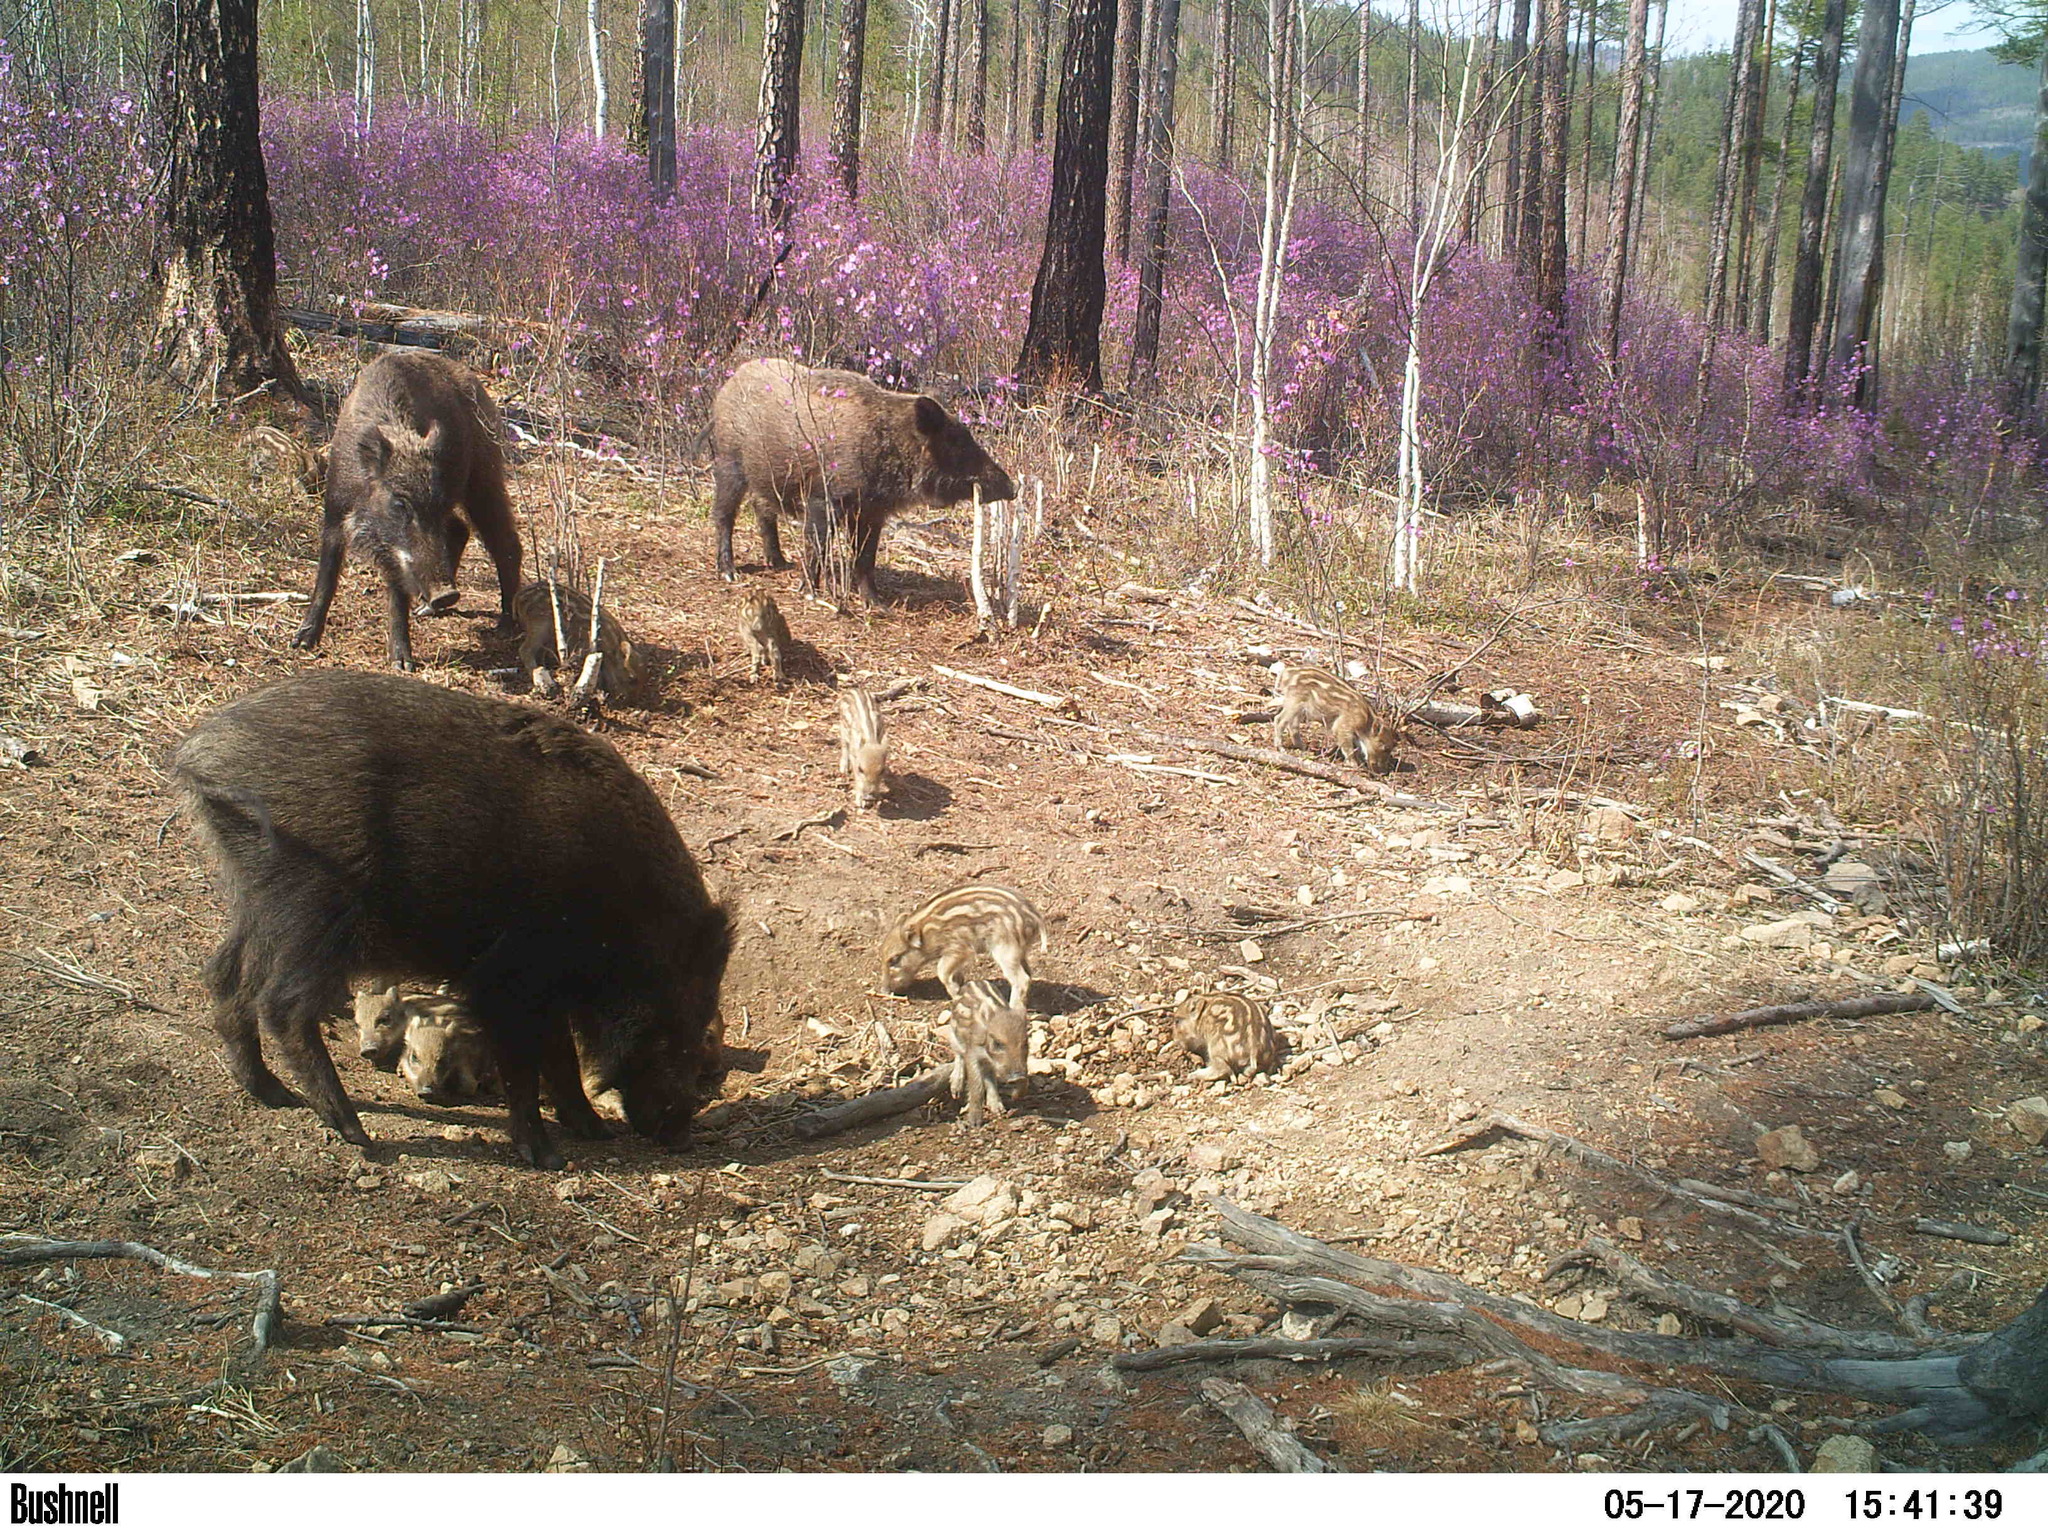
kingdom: Animalia
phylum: Chordata
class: Mammalia
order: Artiodactyla
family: Suidae
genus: Sus
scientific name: Sus scrofa
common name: Wild boar
